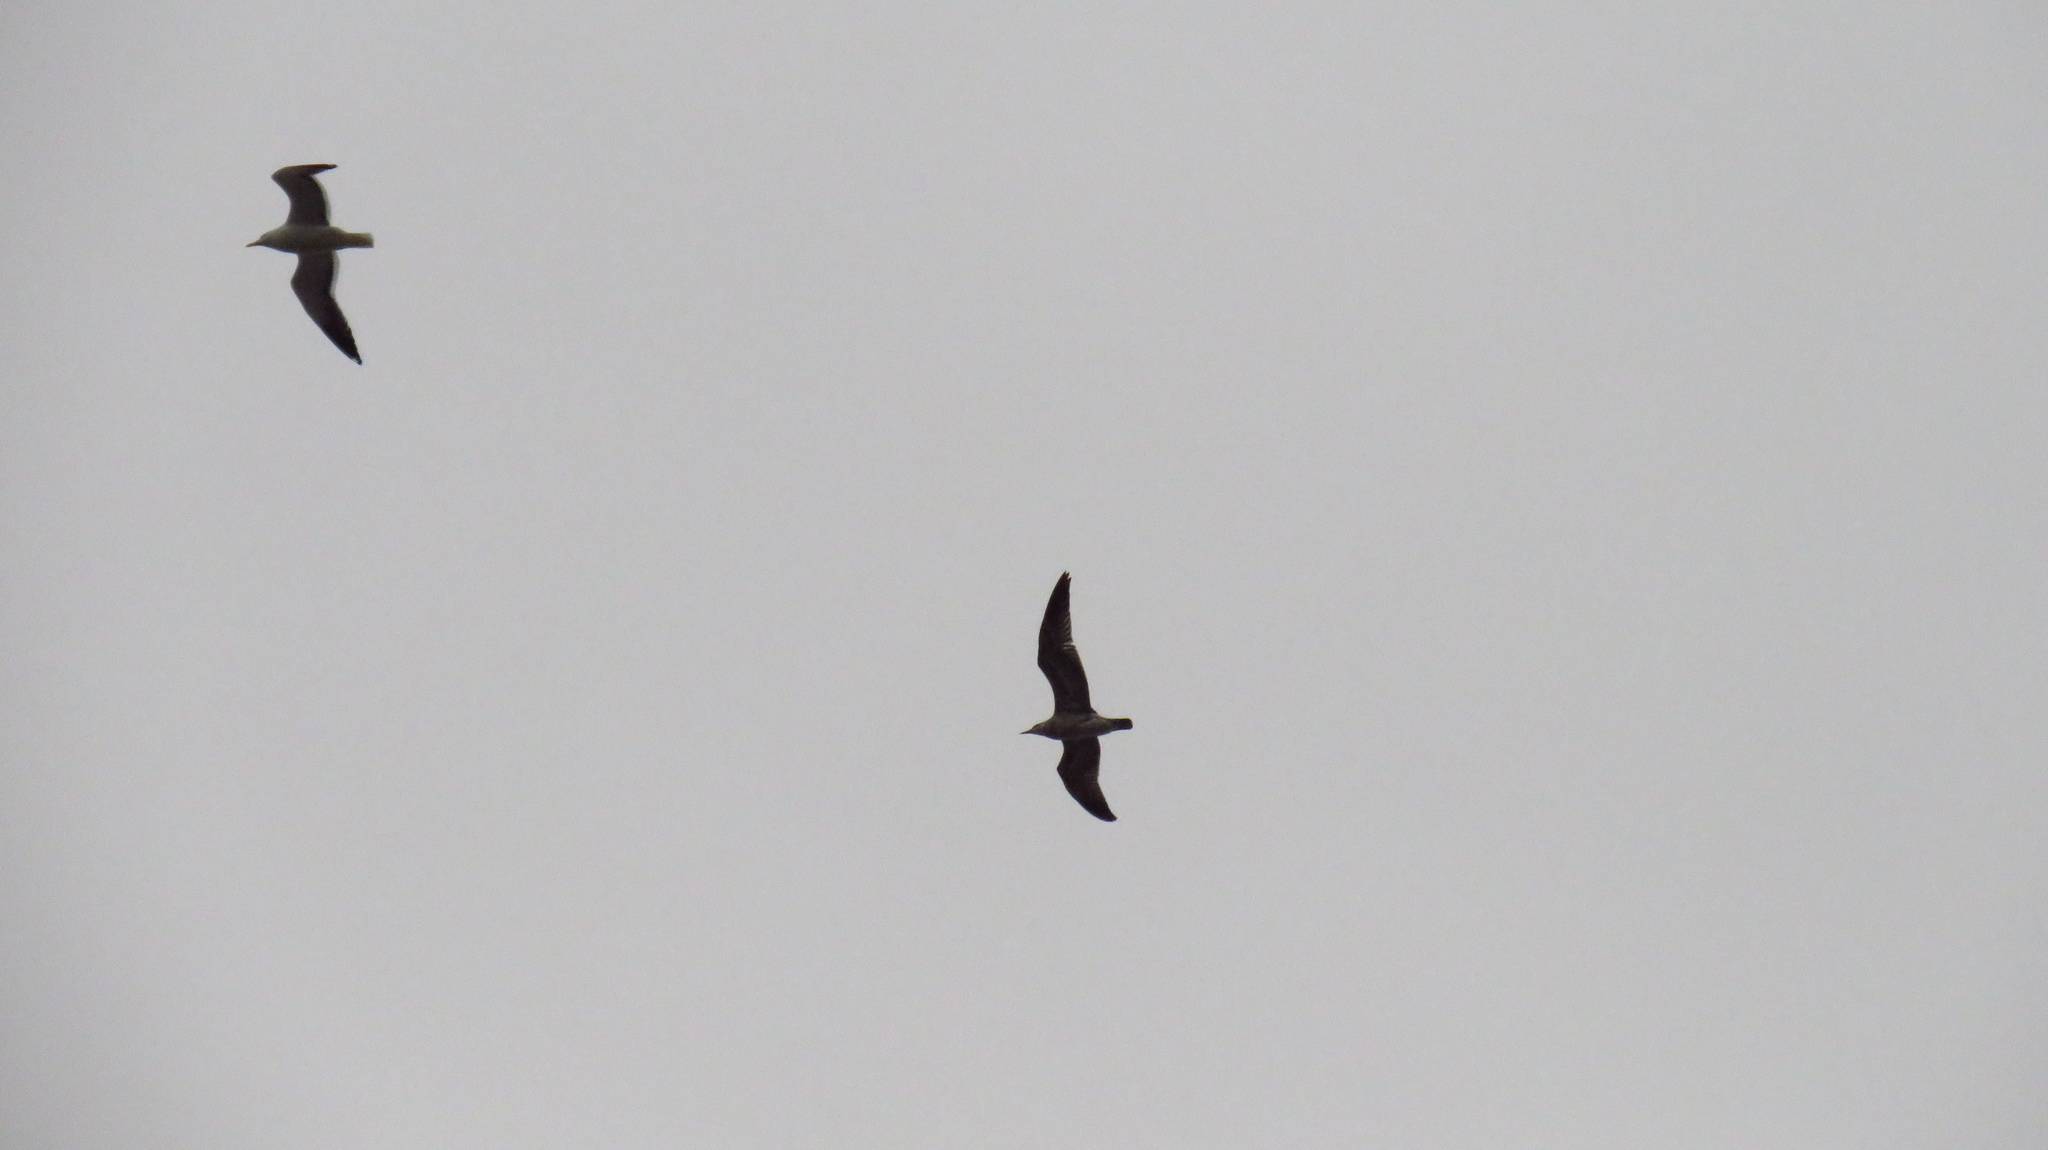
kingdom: Animalia
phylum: Chordata
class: Aves
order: Charadriiformes
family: Laridae
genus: Larus
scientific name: Larus fuscus
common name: Lesser black-backed gull
